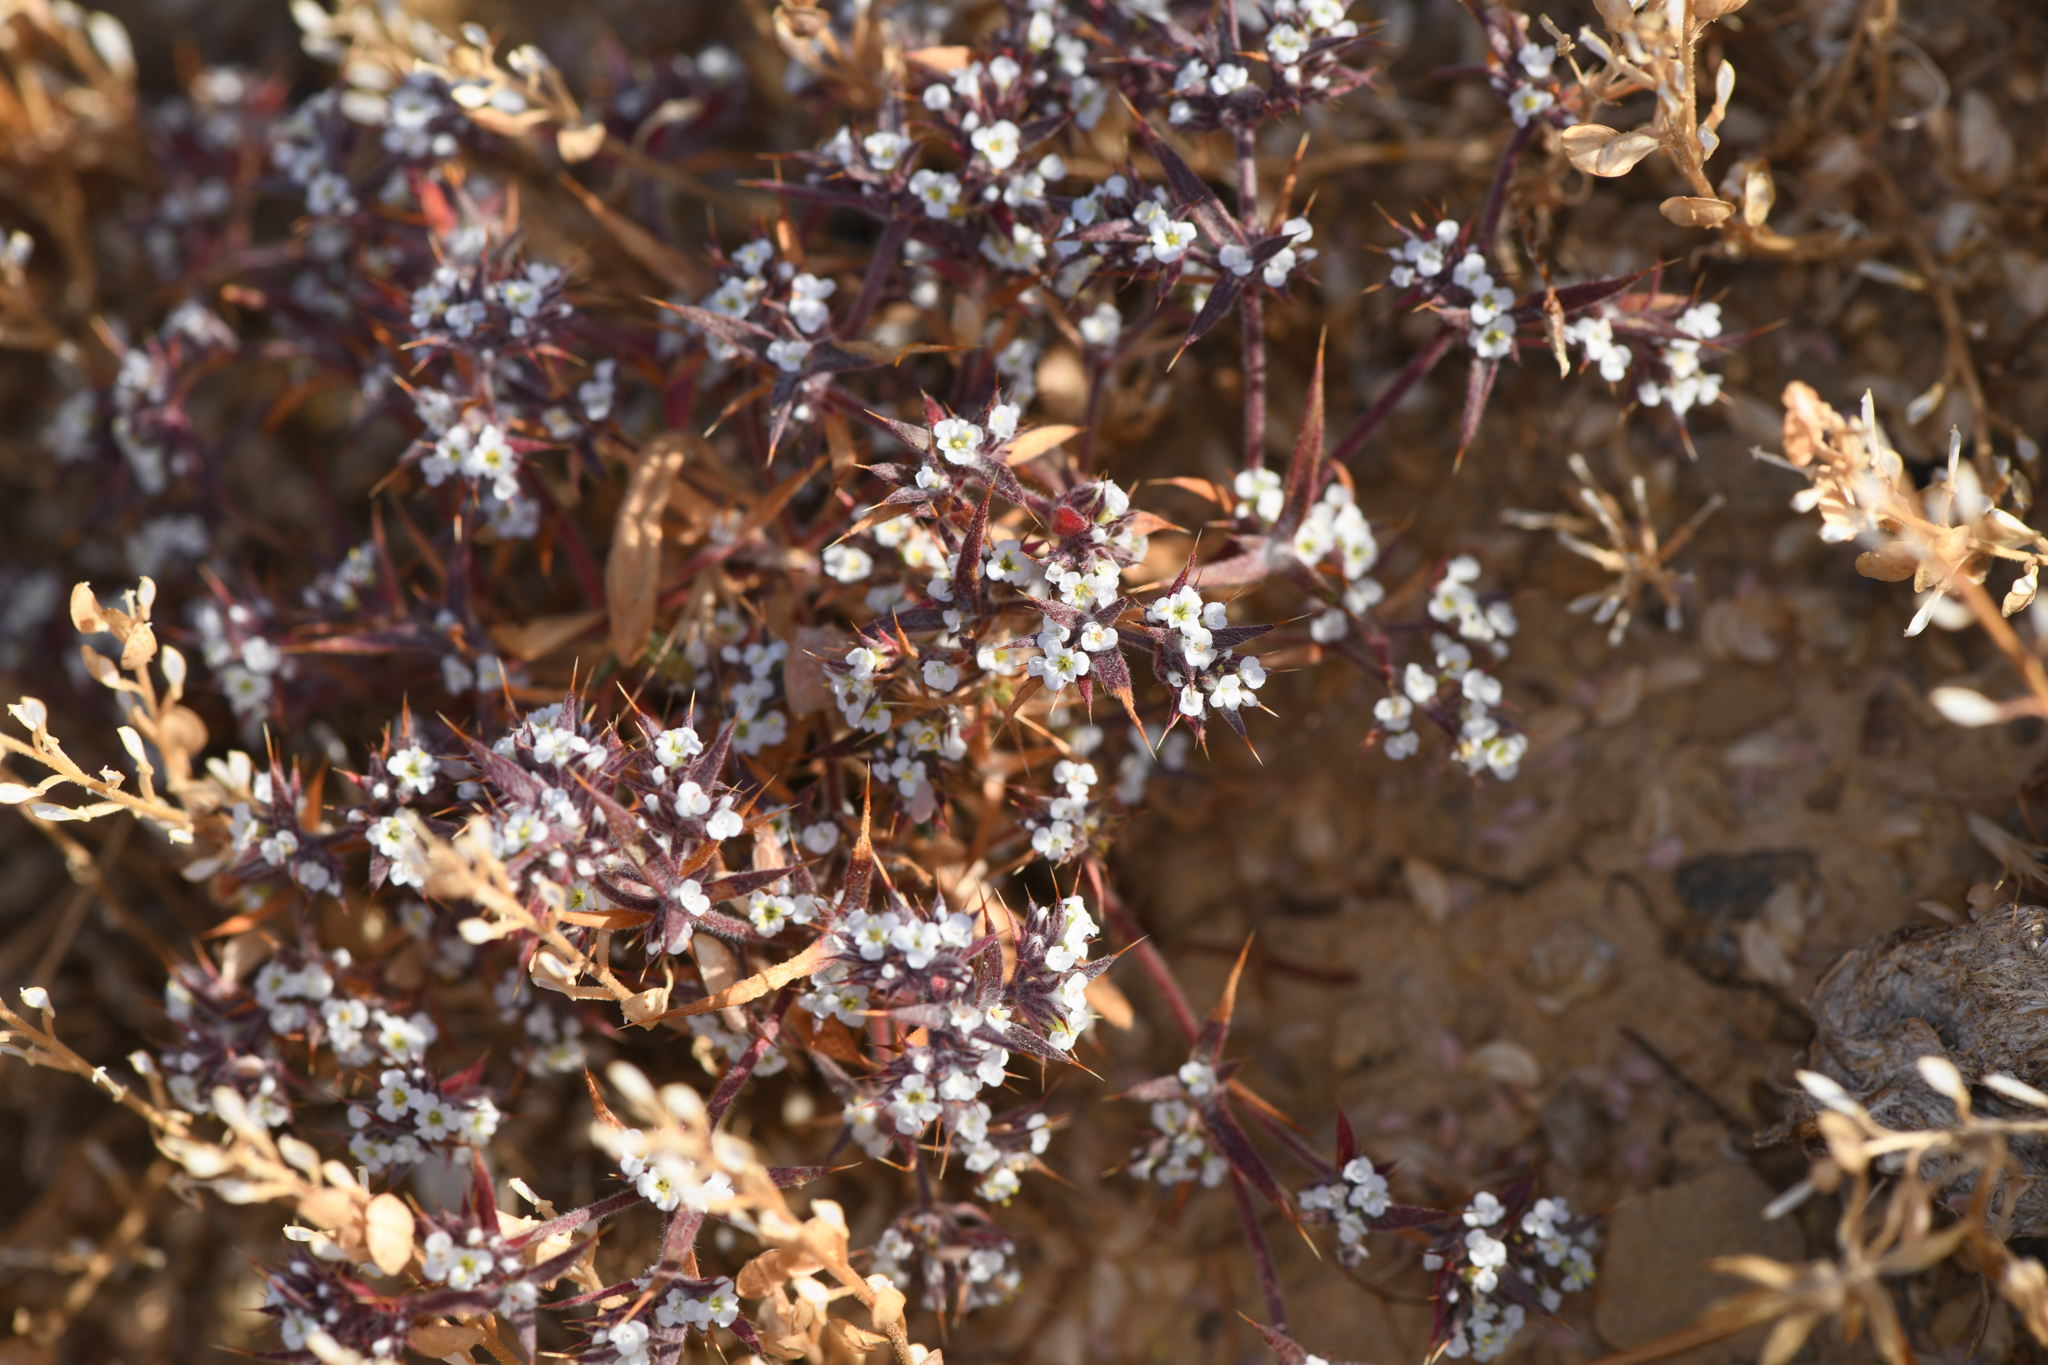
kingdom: Plantae
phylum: Tracheophyta
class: Magnoliopsida
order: Caryophyllales
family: Polygonaceae
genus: Chorizanthe
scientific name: Chorizanthe spinosa
